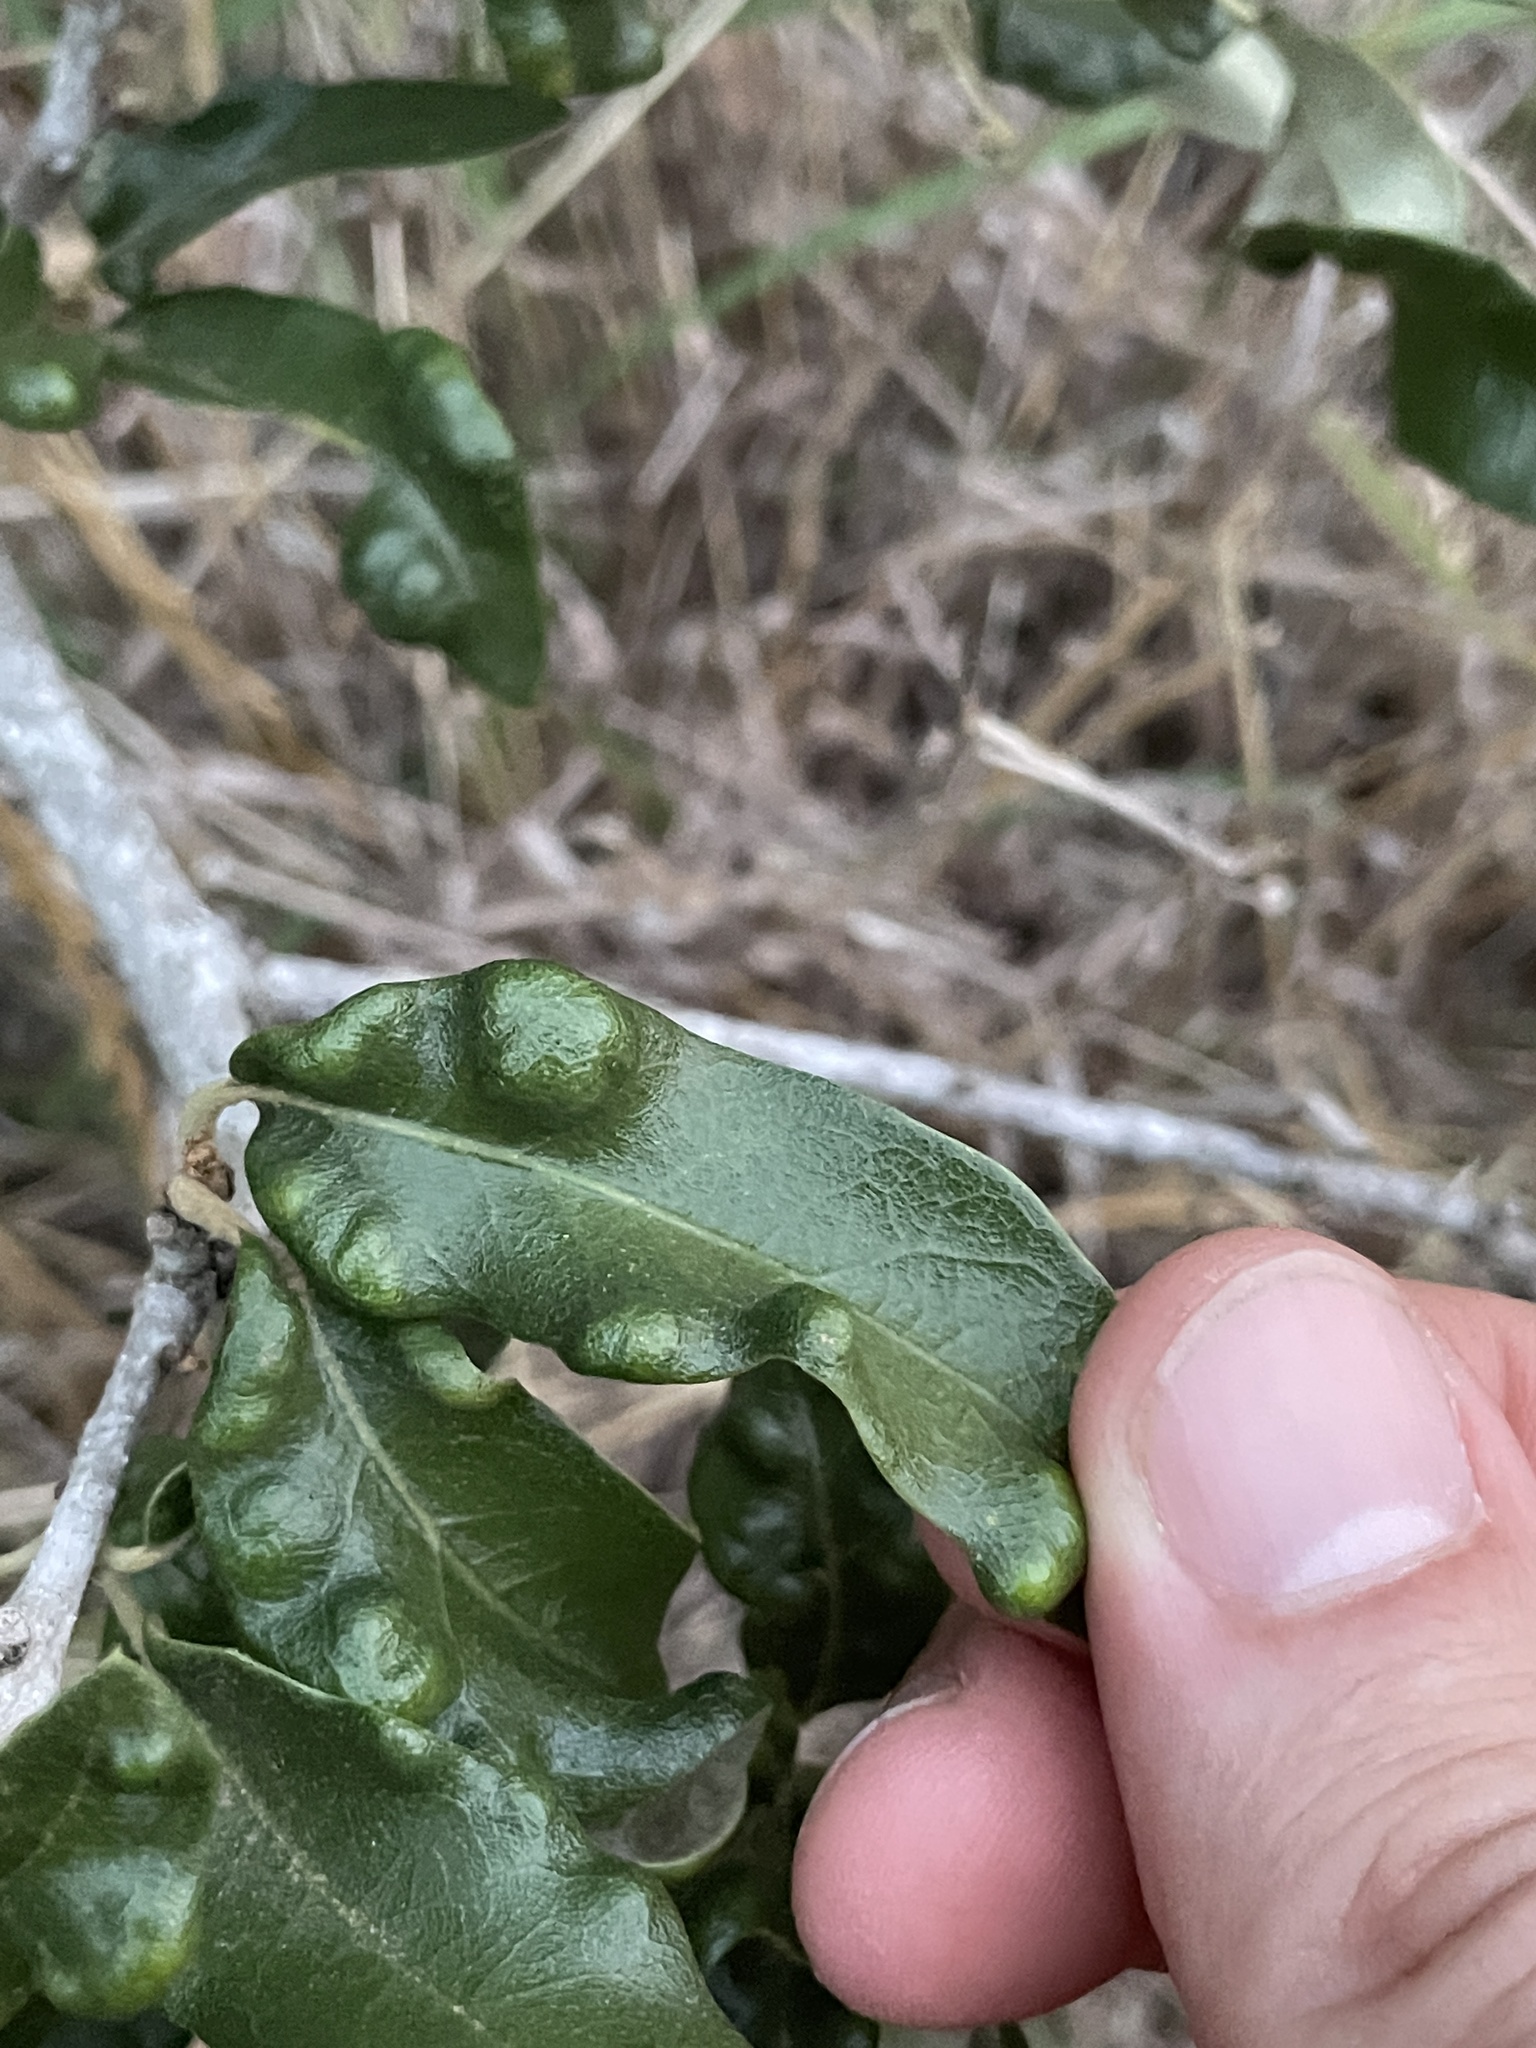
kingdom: Animalia
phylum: Arthropoda
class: Arachnida
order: Trombidiformes
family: Eriophyidae
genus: Aceria
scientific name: Aceria quercina
